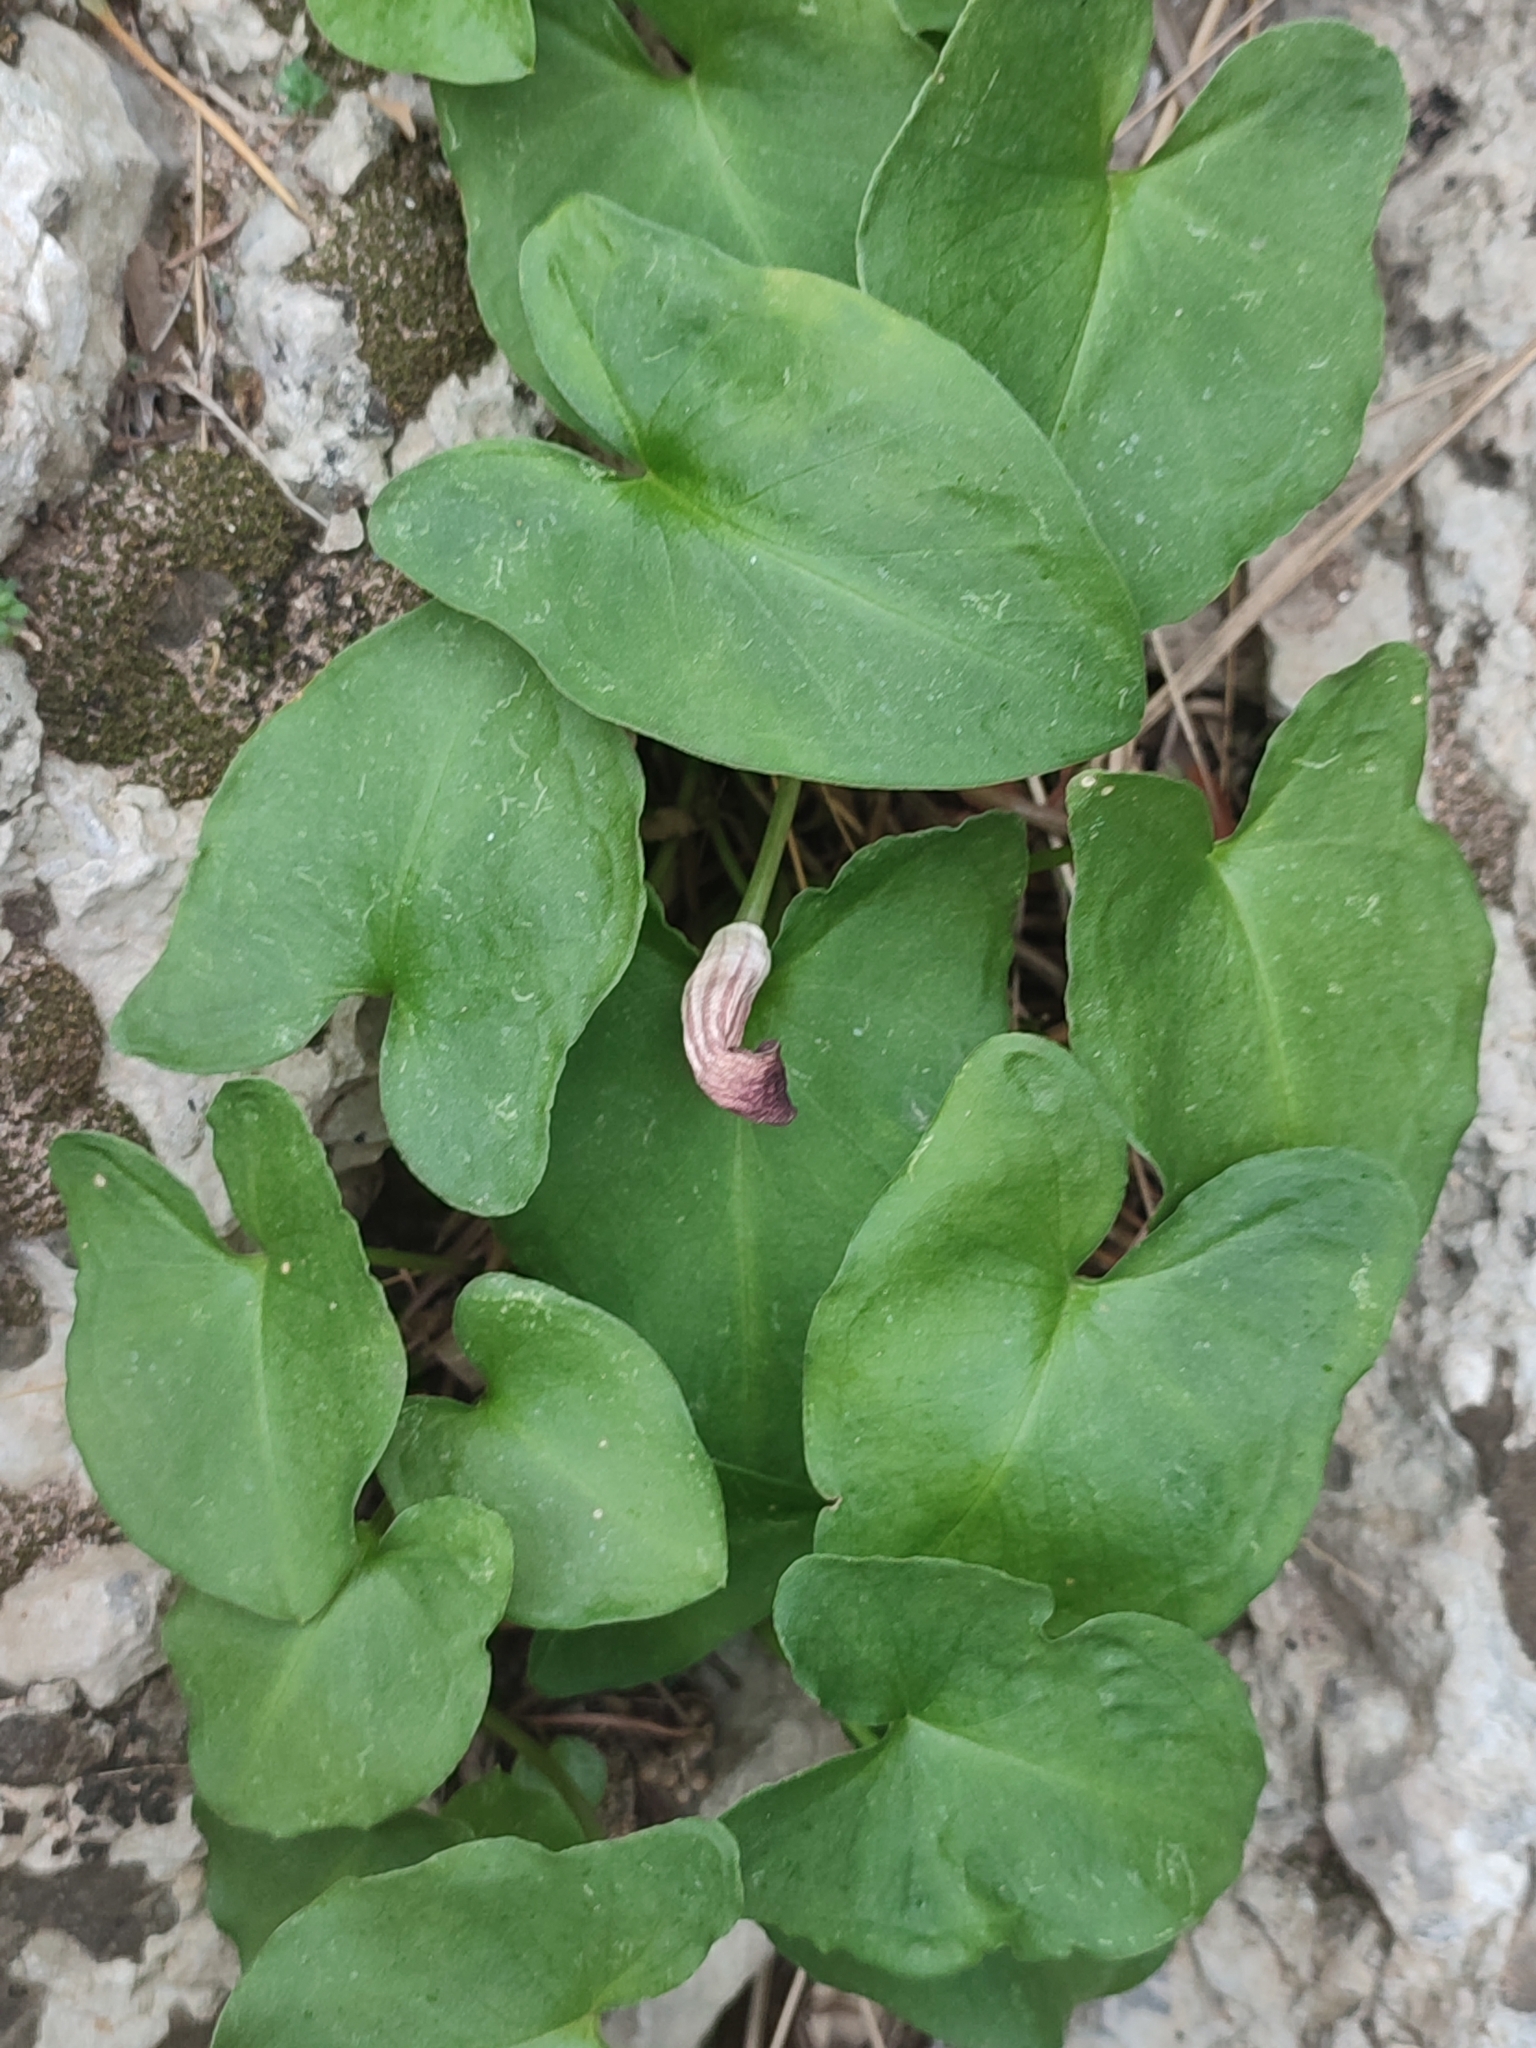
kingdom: Plantae
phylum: Tracheophyta
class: Liliopsida
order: Alismatales
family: Araceae
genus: Arisarum
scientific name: Arisarum vulgare
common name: Common arisarum
